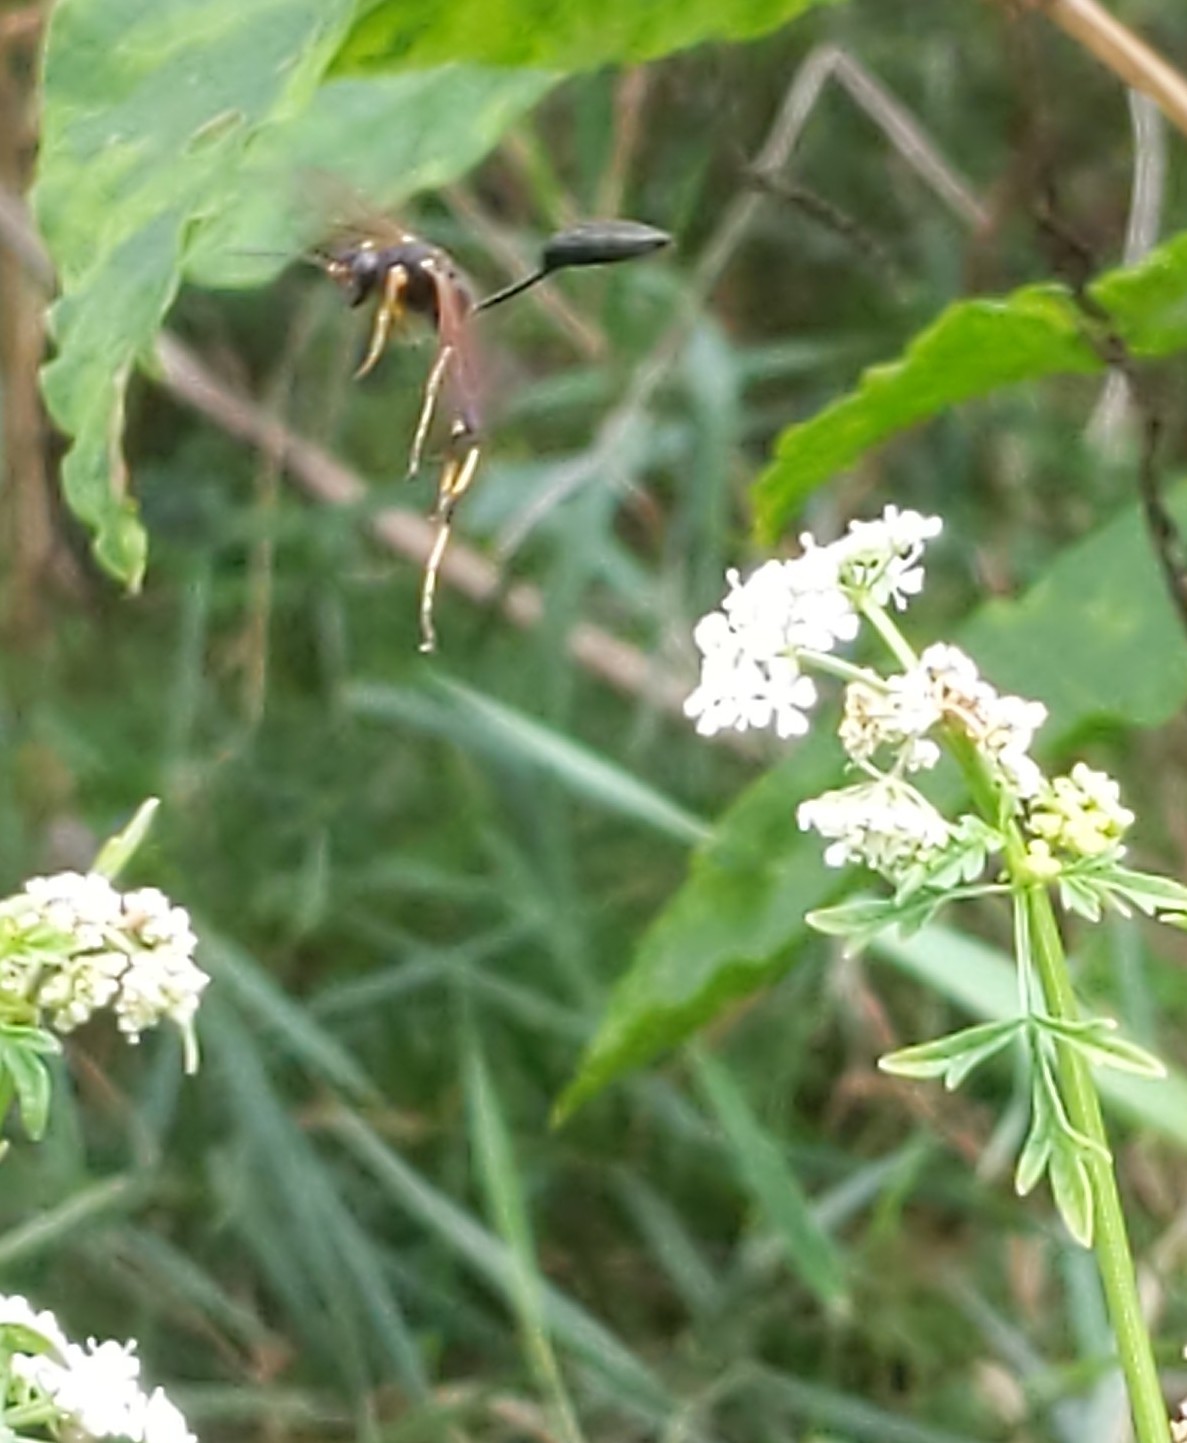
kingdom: Animalia
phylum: Arthropoda
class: Insecta
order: Hymenoptera
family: Sphecidae
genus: Sceliphron
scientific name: Sceliphron caementarium
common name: Mud dauber
